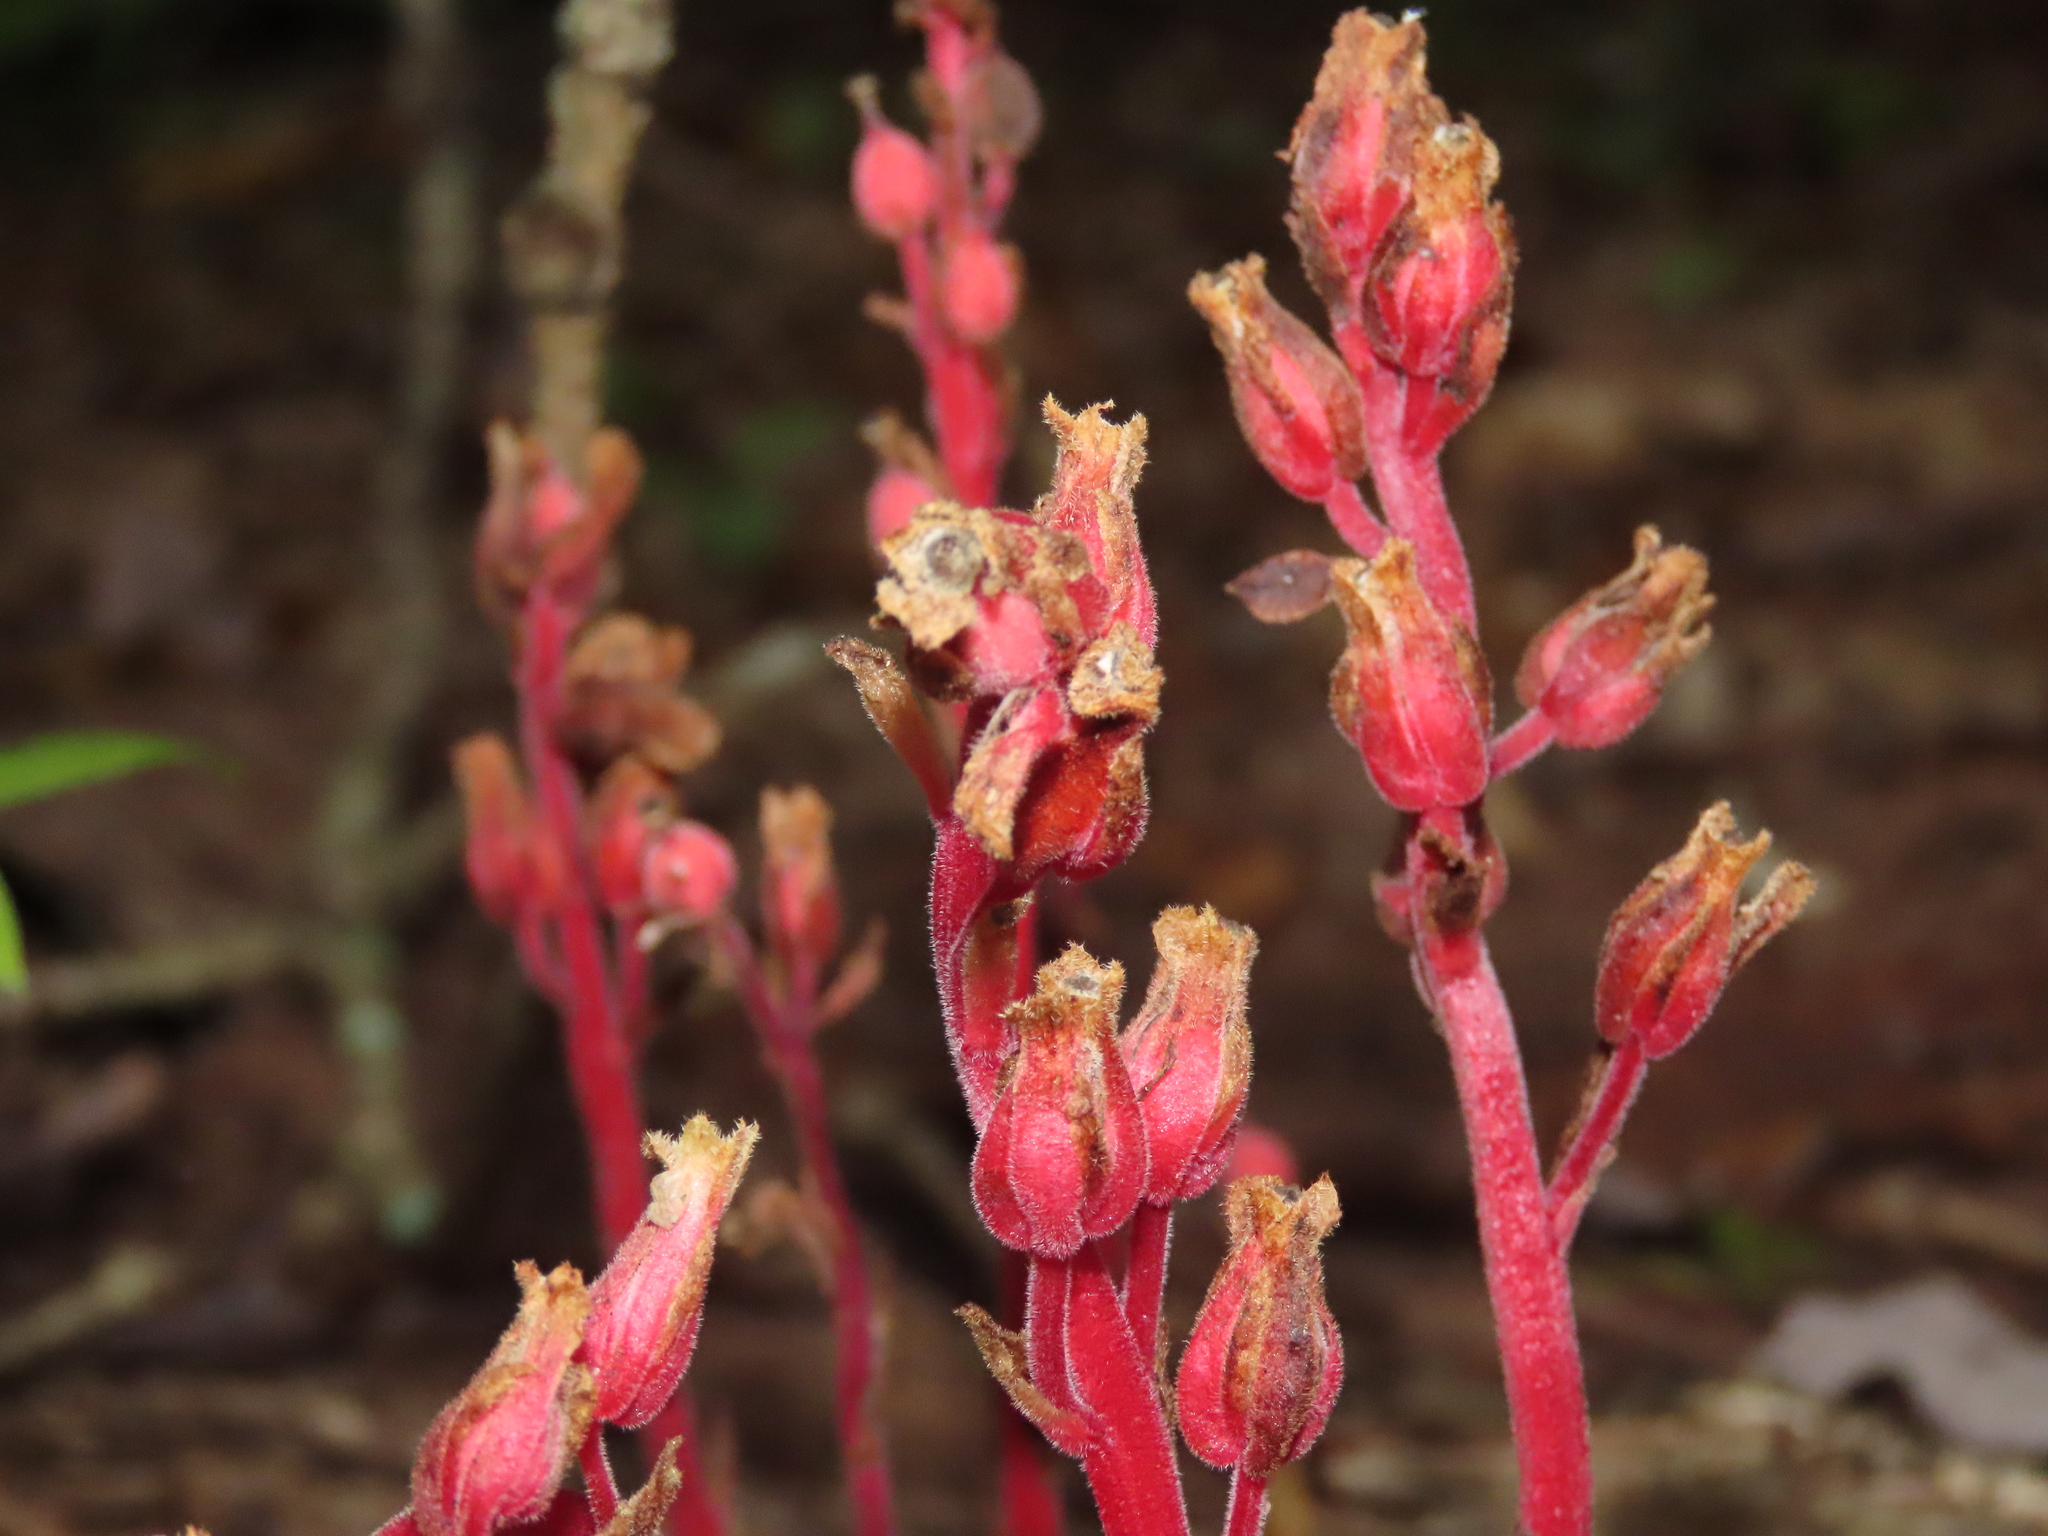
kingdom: Plantae
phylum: Tracheophyta
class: Magnoliopsida
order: Ericales
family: Ericaceae
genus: Hypopitys
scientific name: Hypopitys monotropa
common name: Yellow bird's-nest
